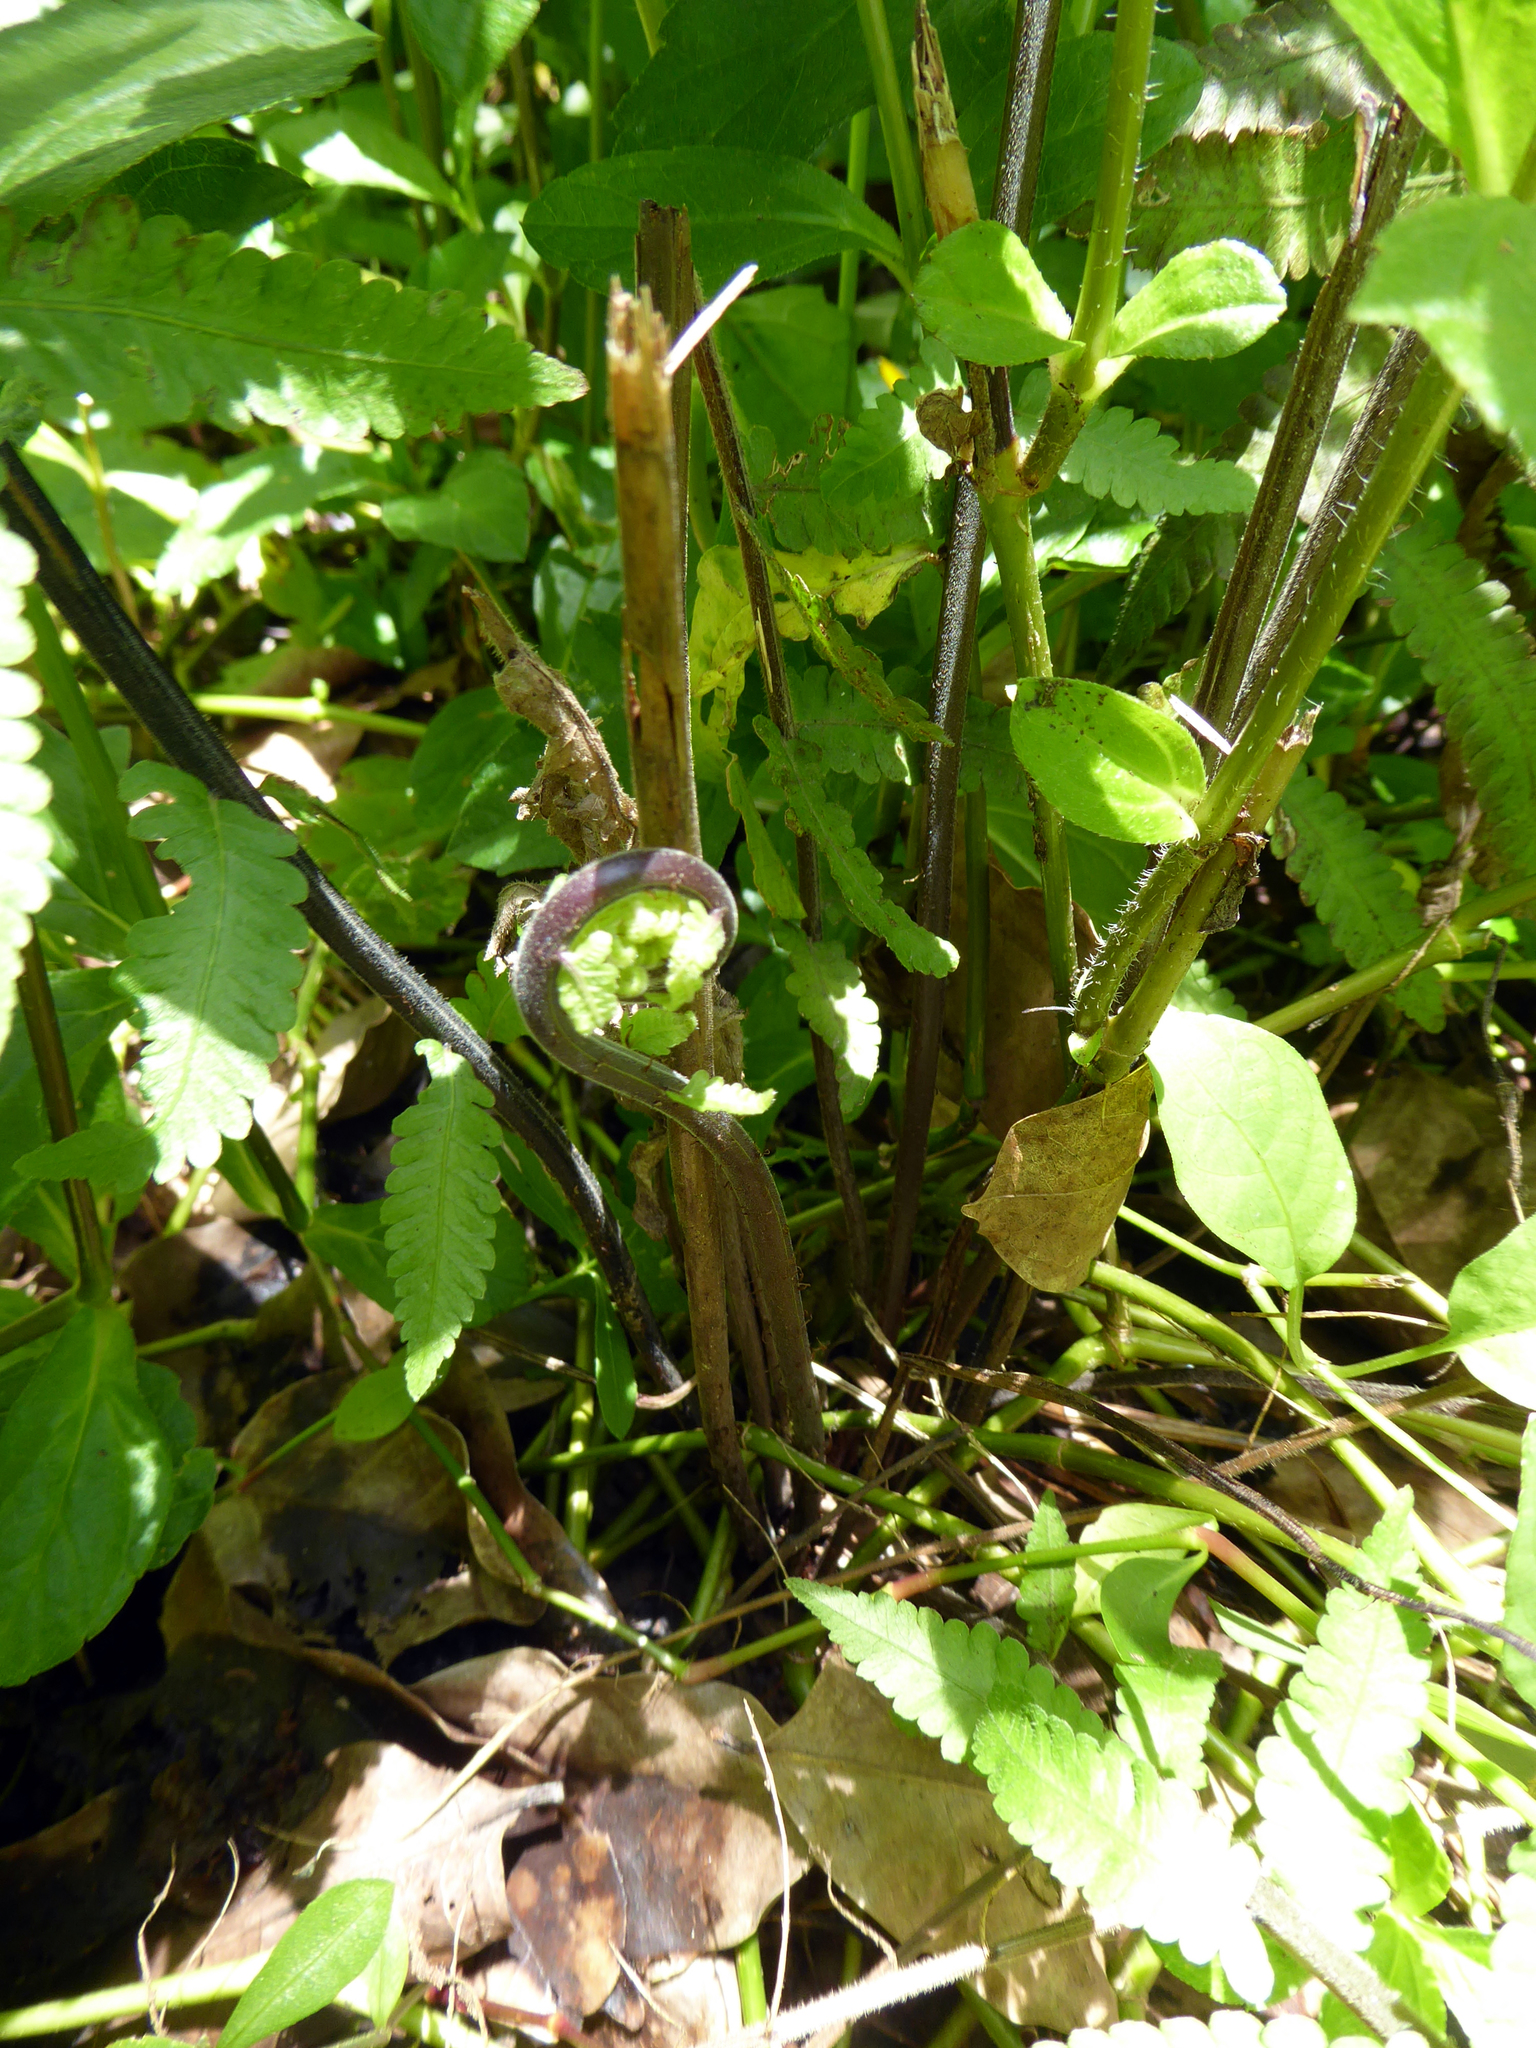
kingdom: Plantae
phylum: Tracheophyta
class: Polypodiopsida
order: Polypodiales
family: Thelypteridaceae
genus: Christella
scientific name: Christella dentata
